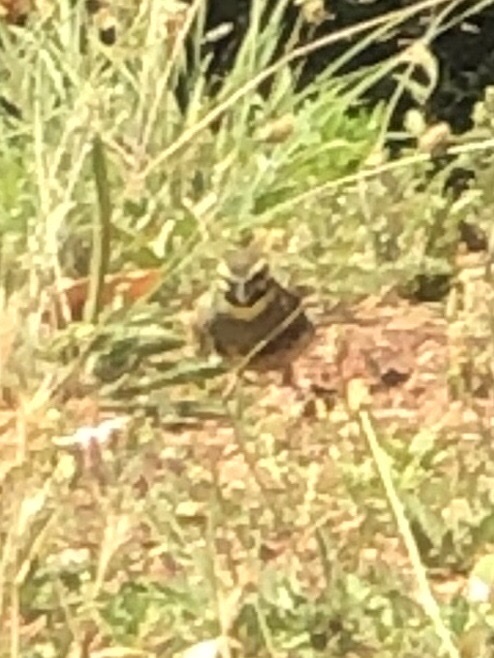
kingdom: Animalia
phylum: Chordata
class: Aves
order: Passeriformes
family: Emberizidae
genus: Emberiza
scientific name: Emberiza cirlus
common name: Cirl bunting
